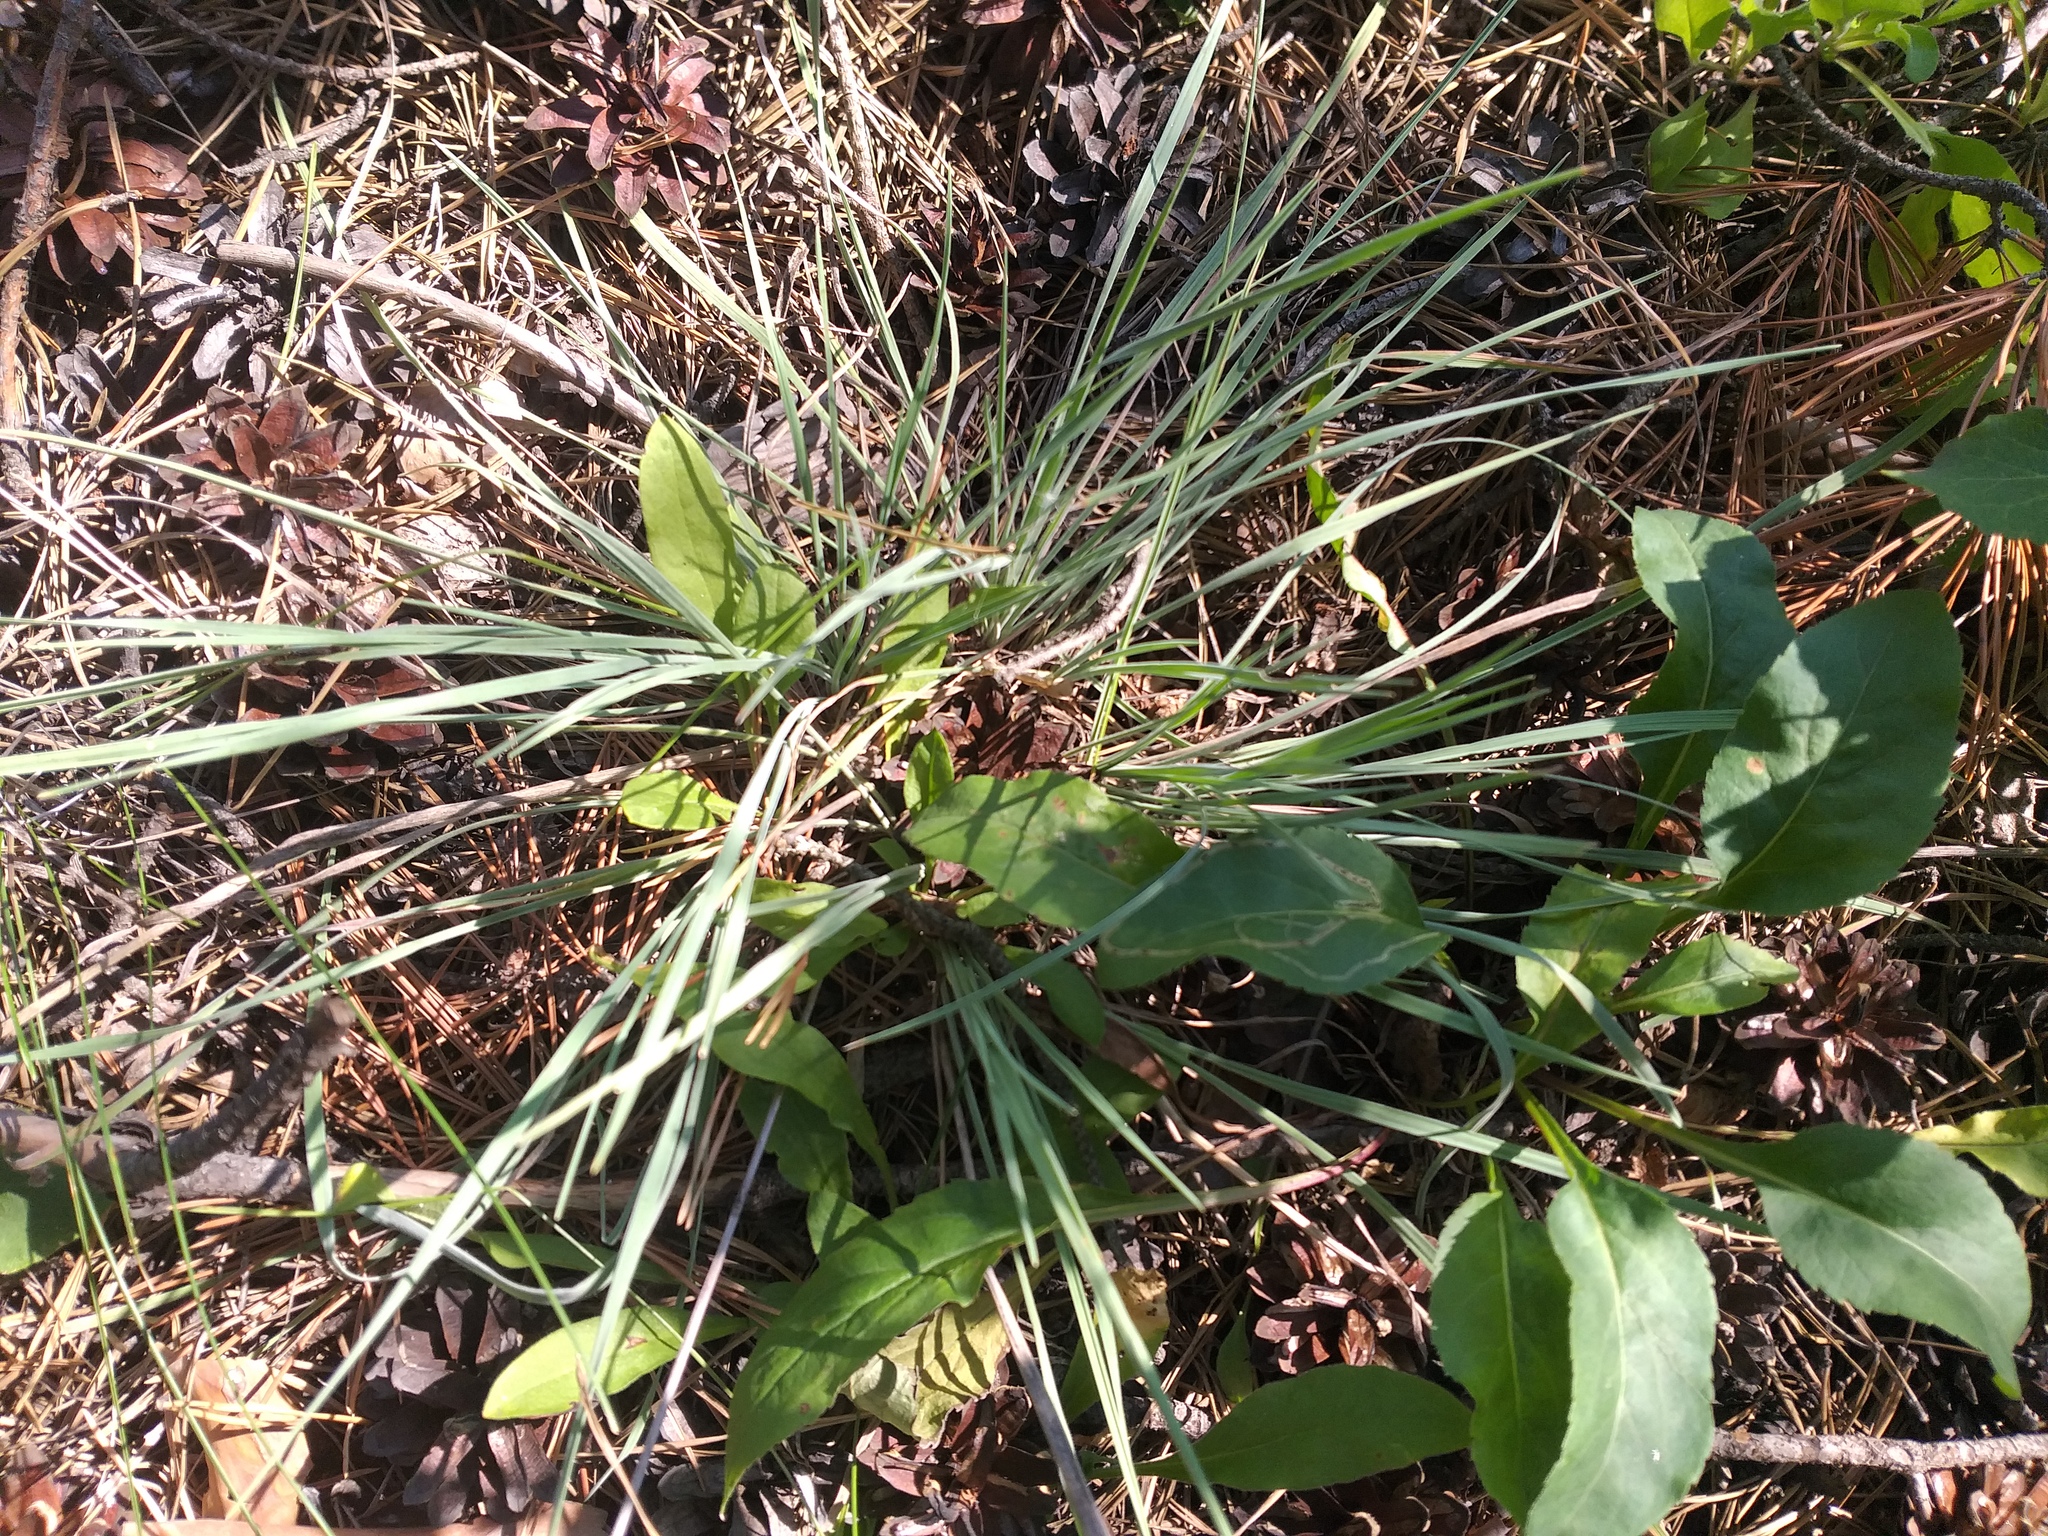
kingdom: Plantae
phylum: Tracheophyta
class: Liliopsida
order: Poales
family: Poaceae
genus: Koeleria
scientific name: Koeleria glauca
